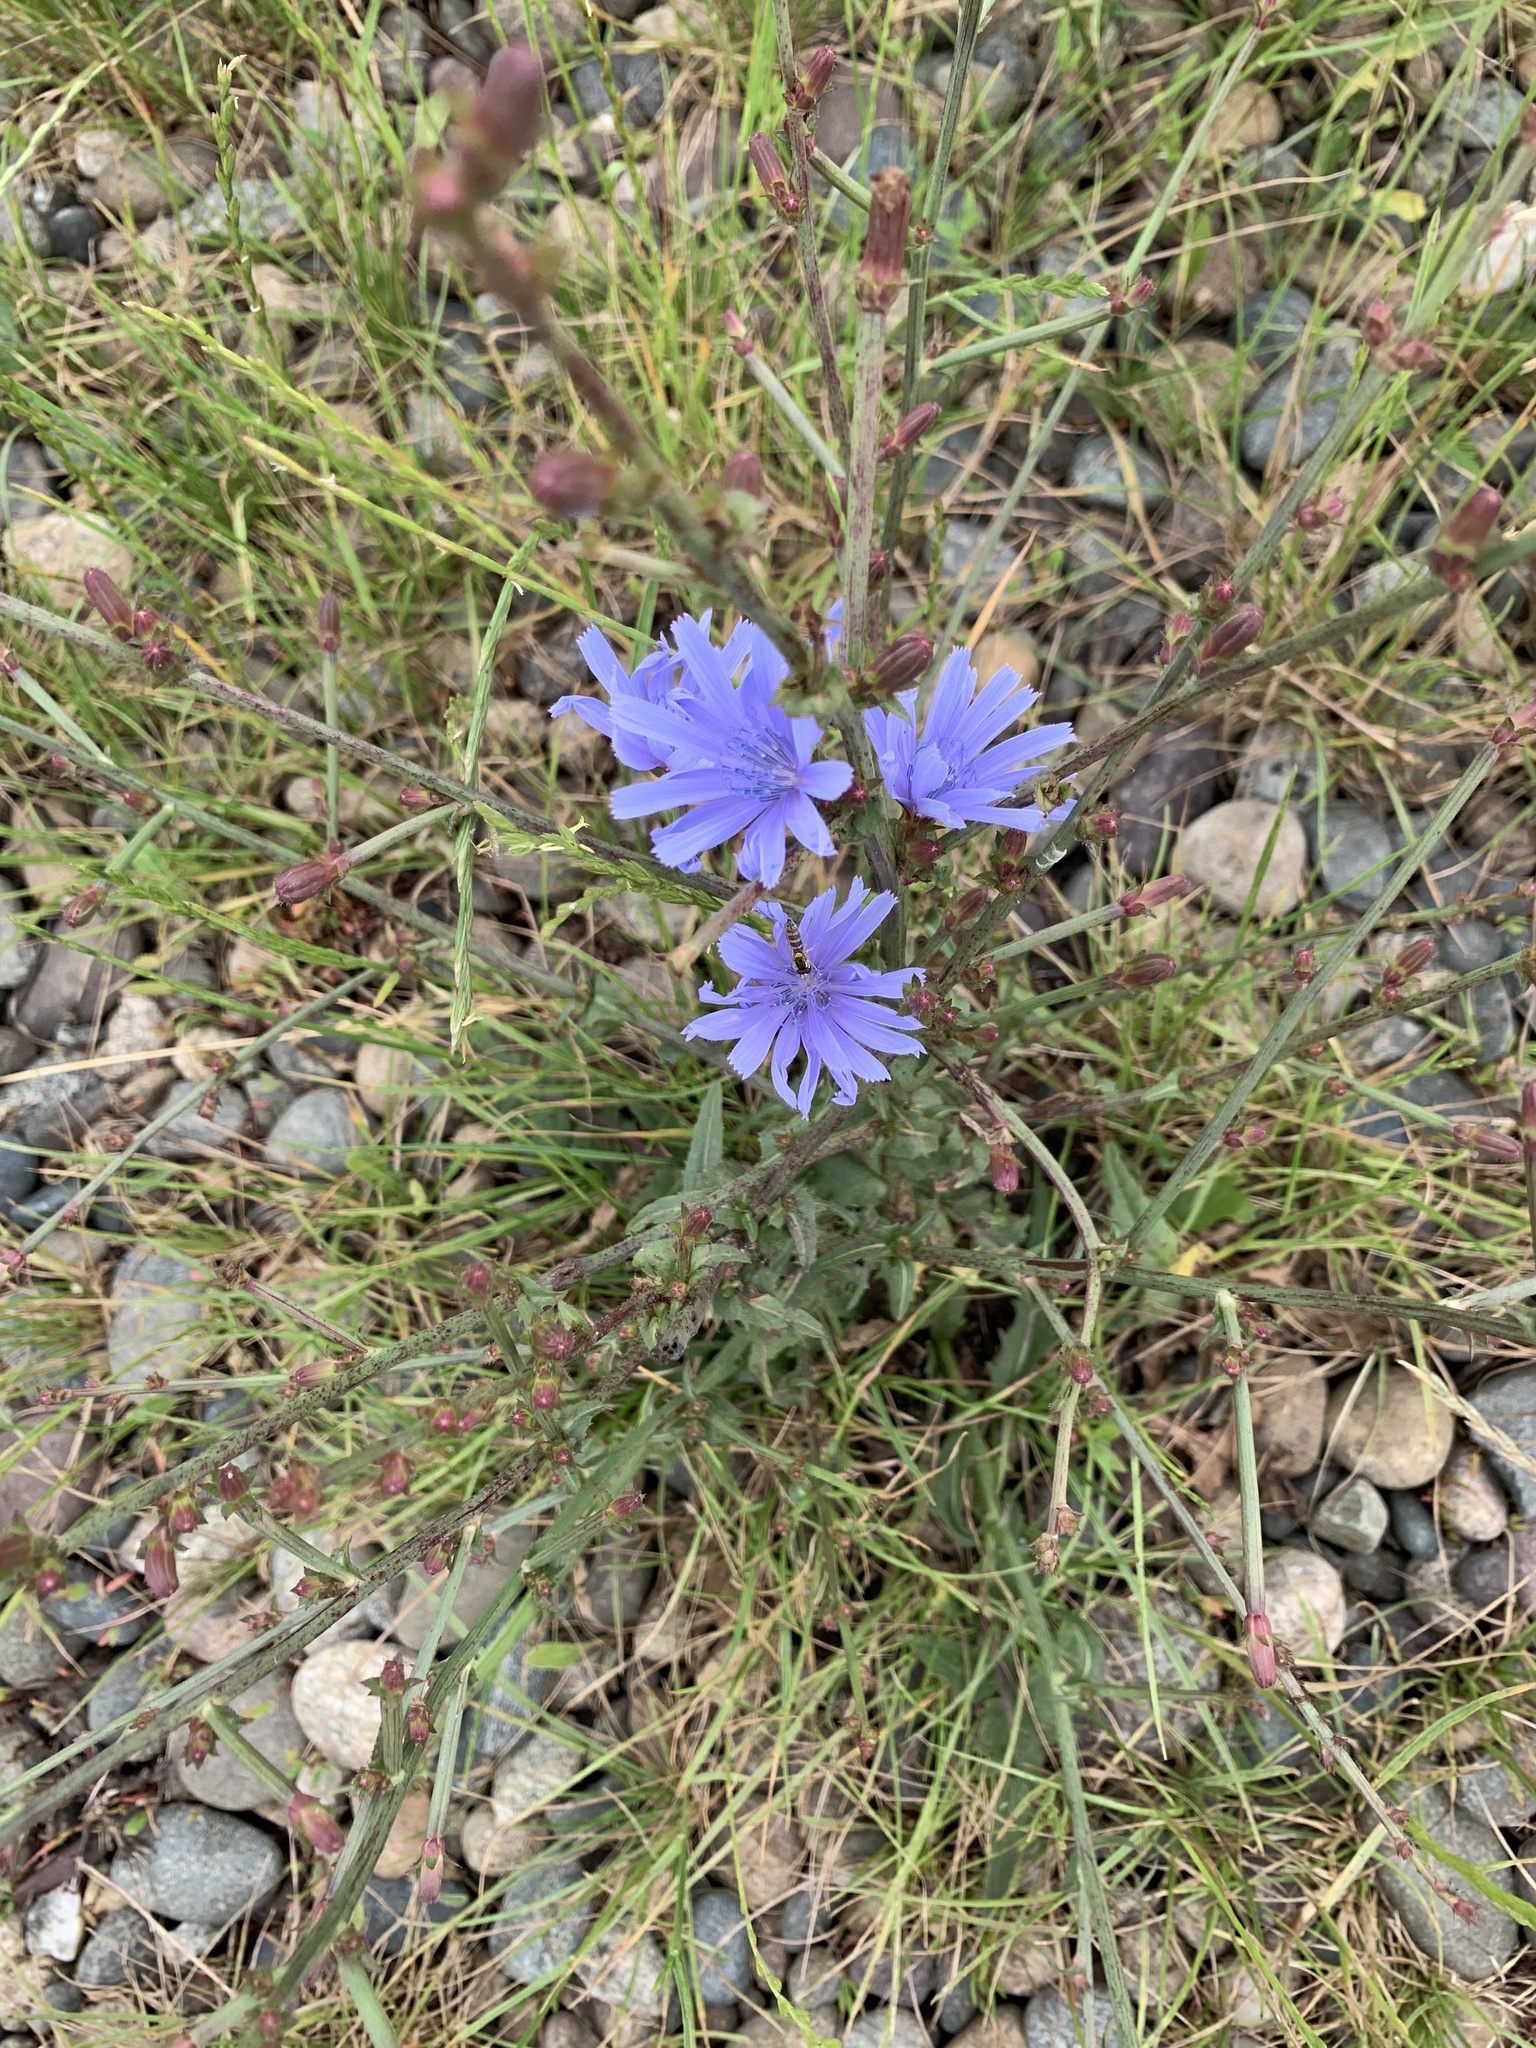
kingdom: Plantae
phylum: Tracheophyta
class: Magnoliopsida
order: Asterales
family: Asteraceae
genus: Cichorium
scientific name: Cichorium intybus
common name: Chicory
